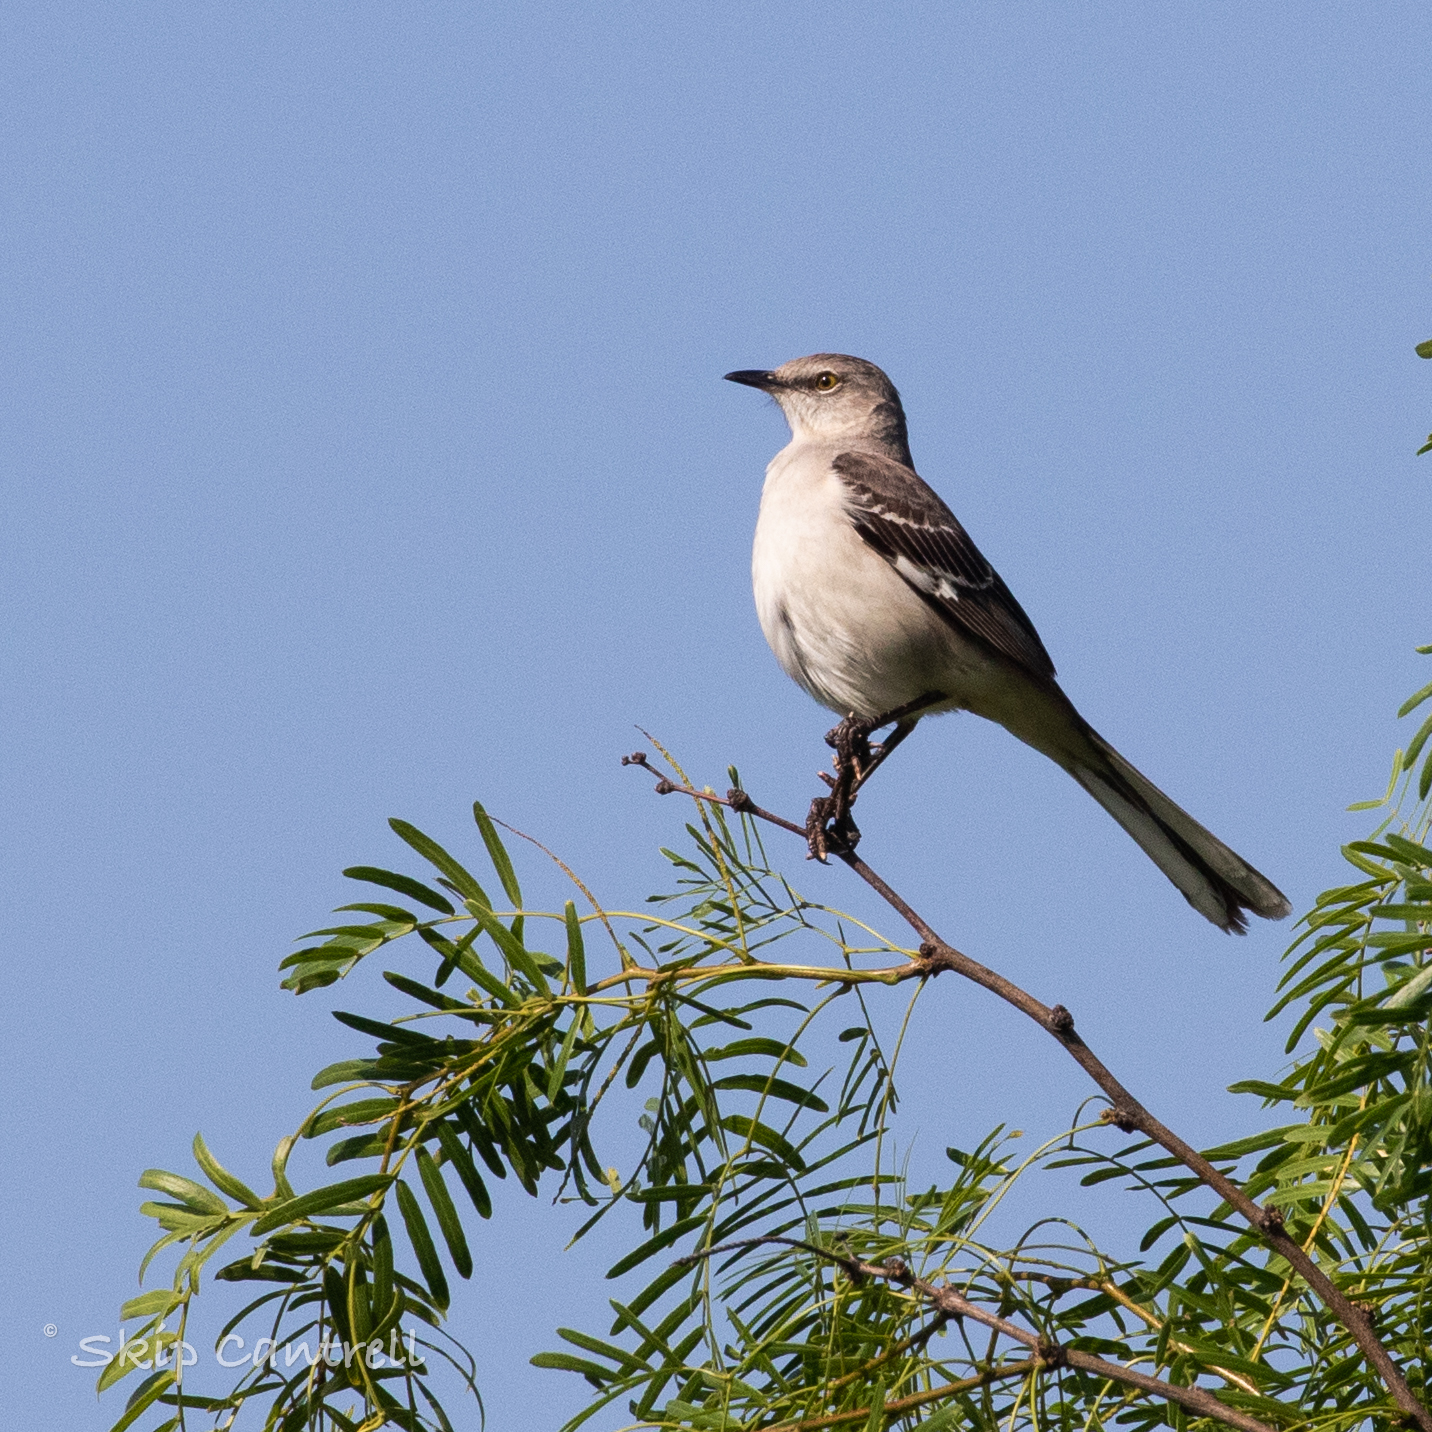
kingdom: Animalia
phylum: Chordata
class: Aves
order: Passeriformes
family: Mimidae
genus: Mimus
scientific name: Mimus polyglottos
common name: Northern mockingbird
